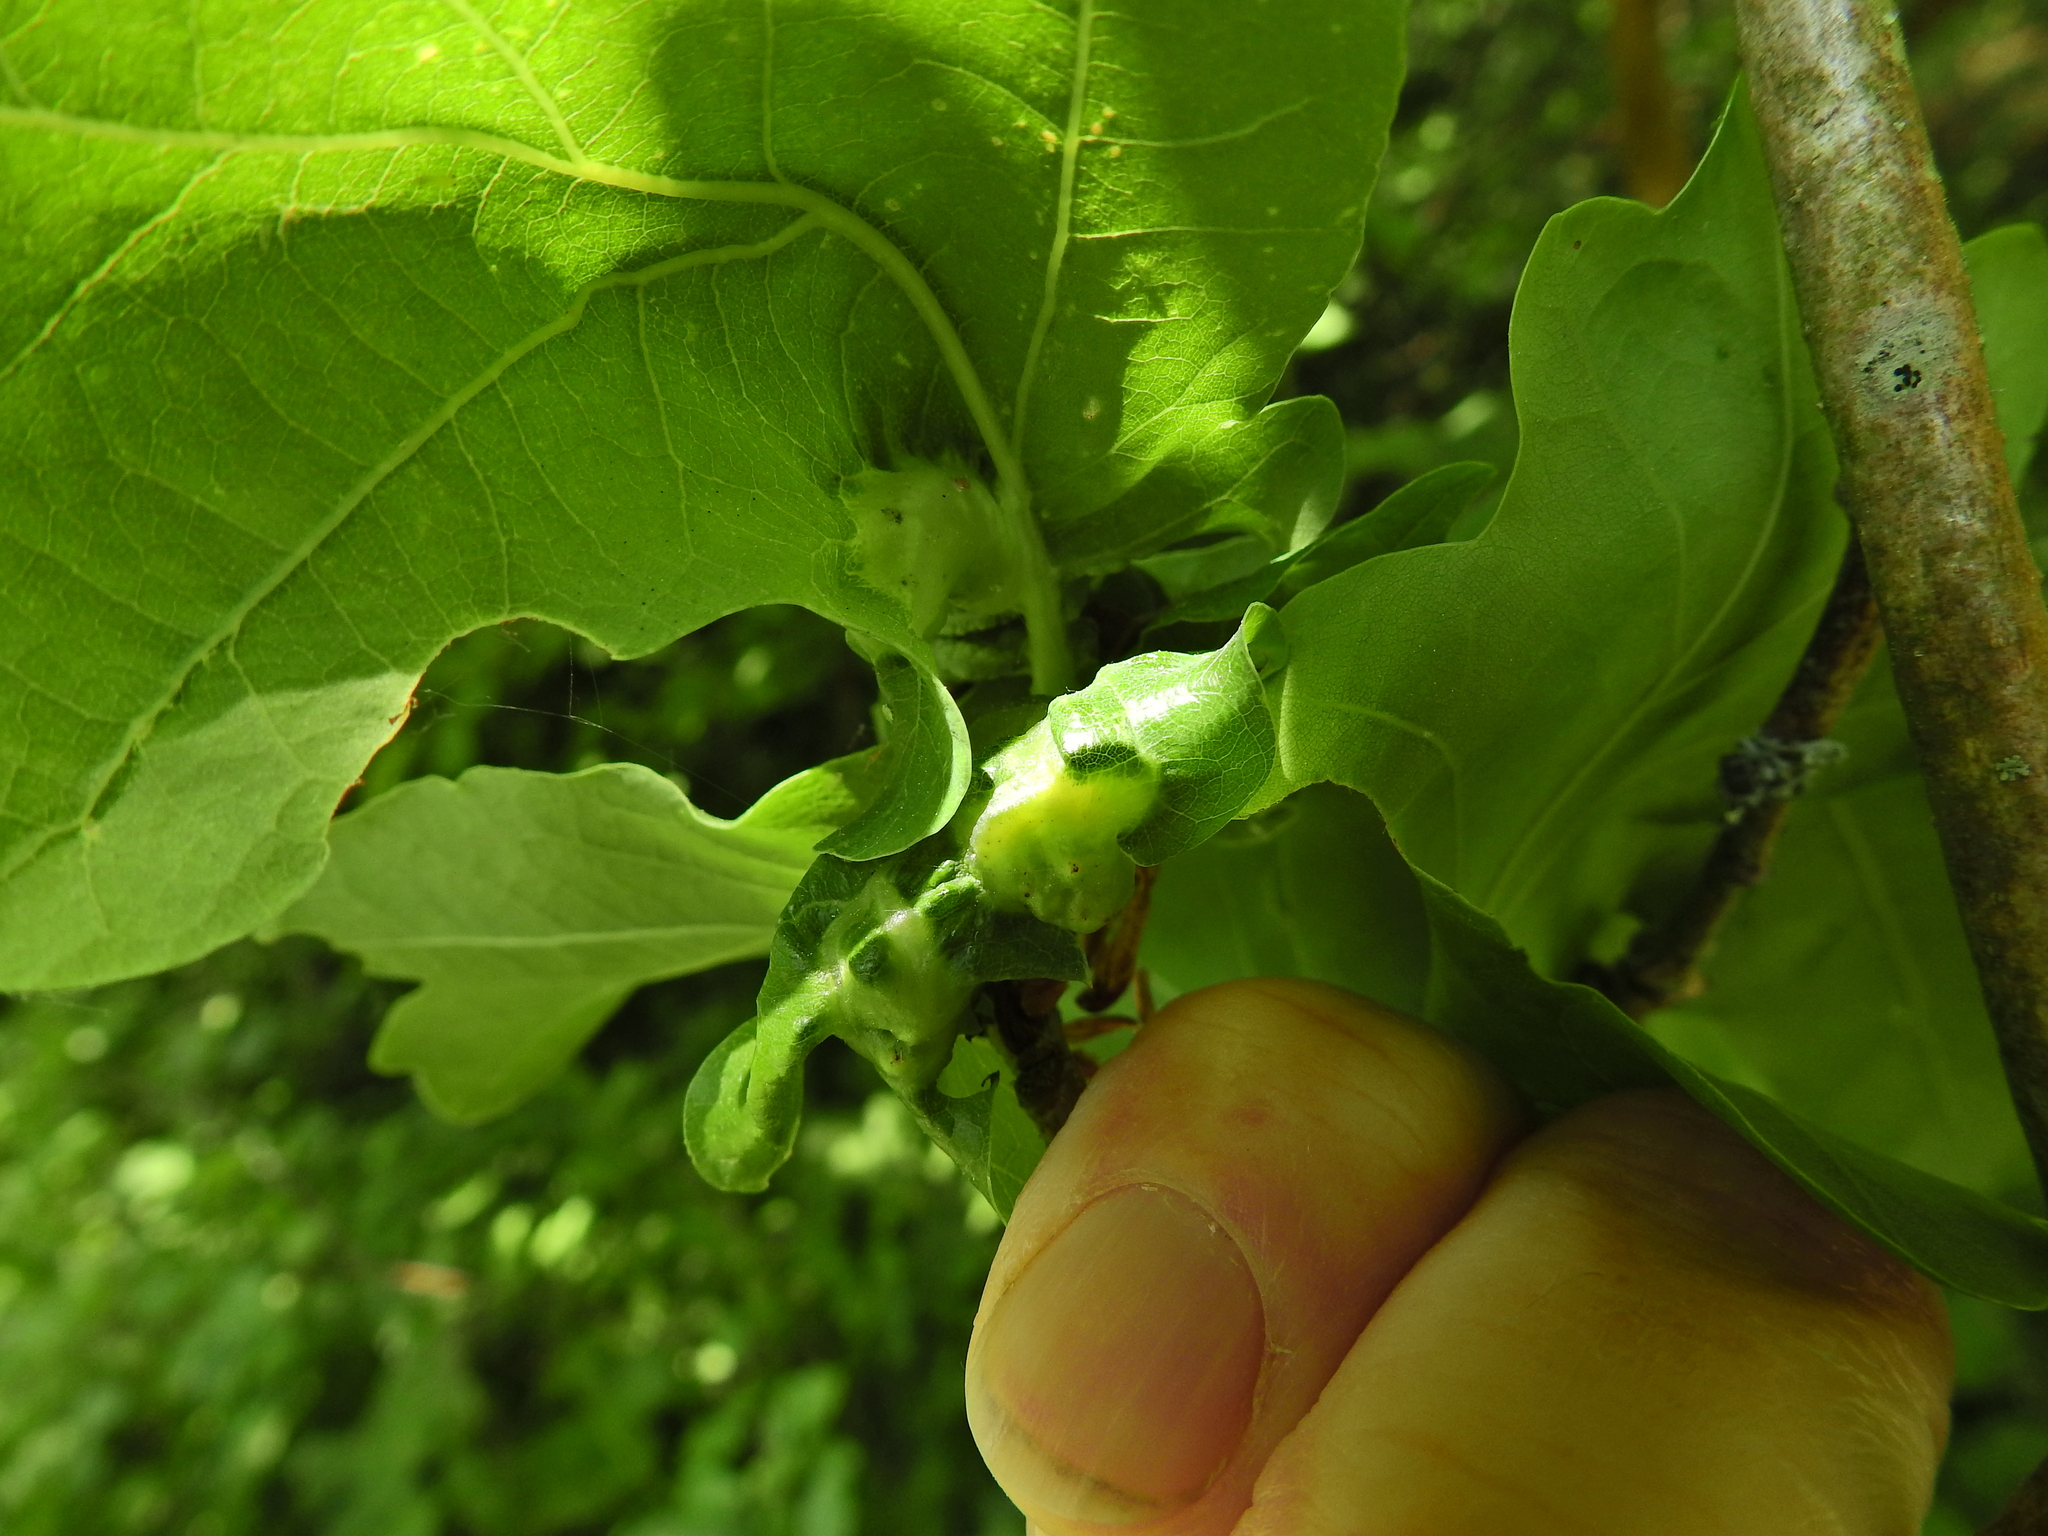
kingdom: Animalia
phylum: Arthropoda
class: Insecta
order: Hymenoptera
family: Cynipidae
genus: Andricus
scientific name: Andricus curvator
